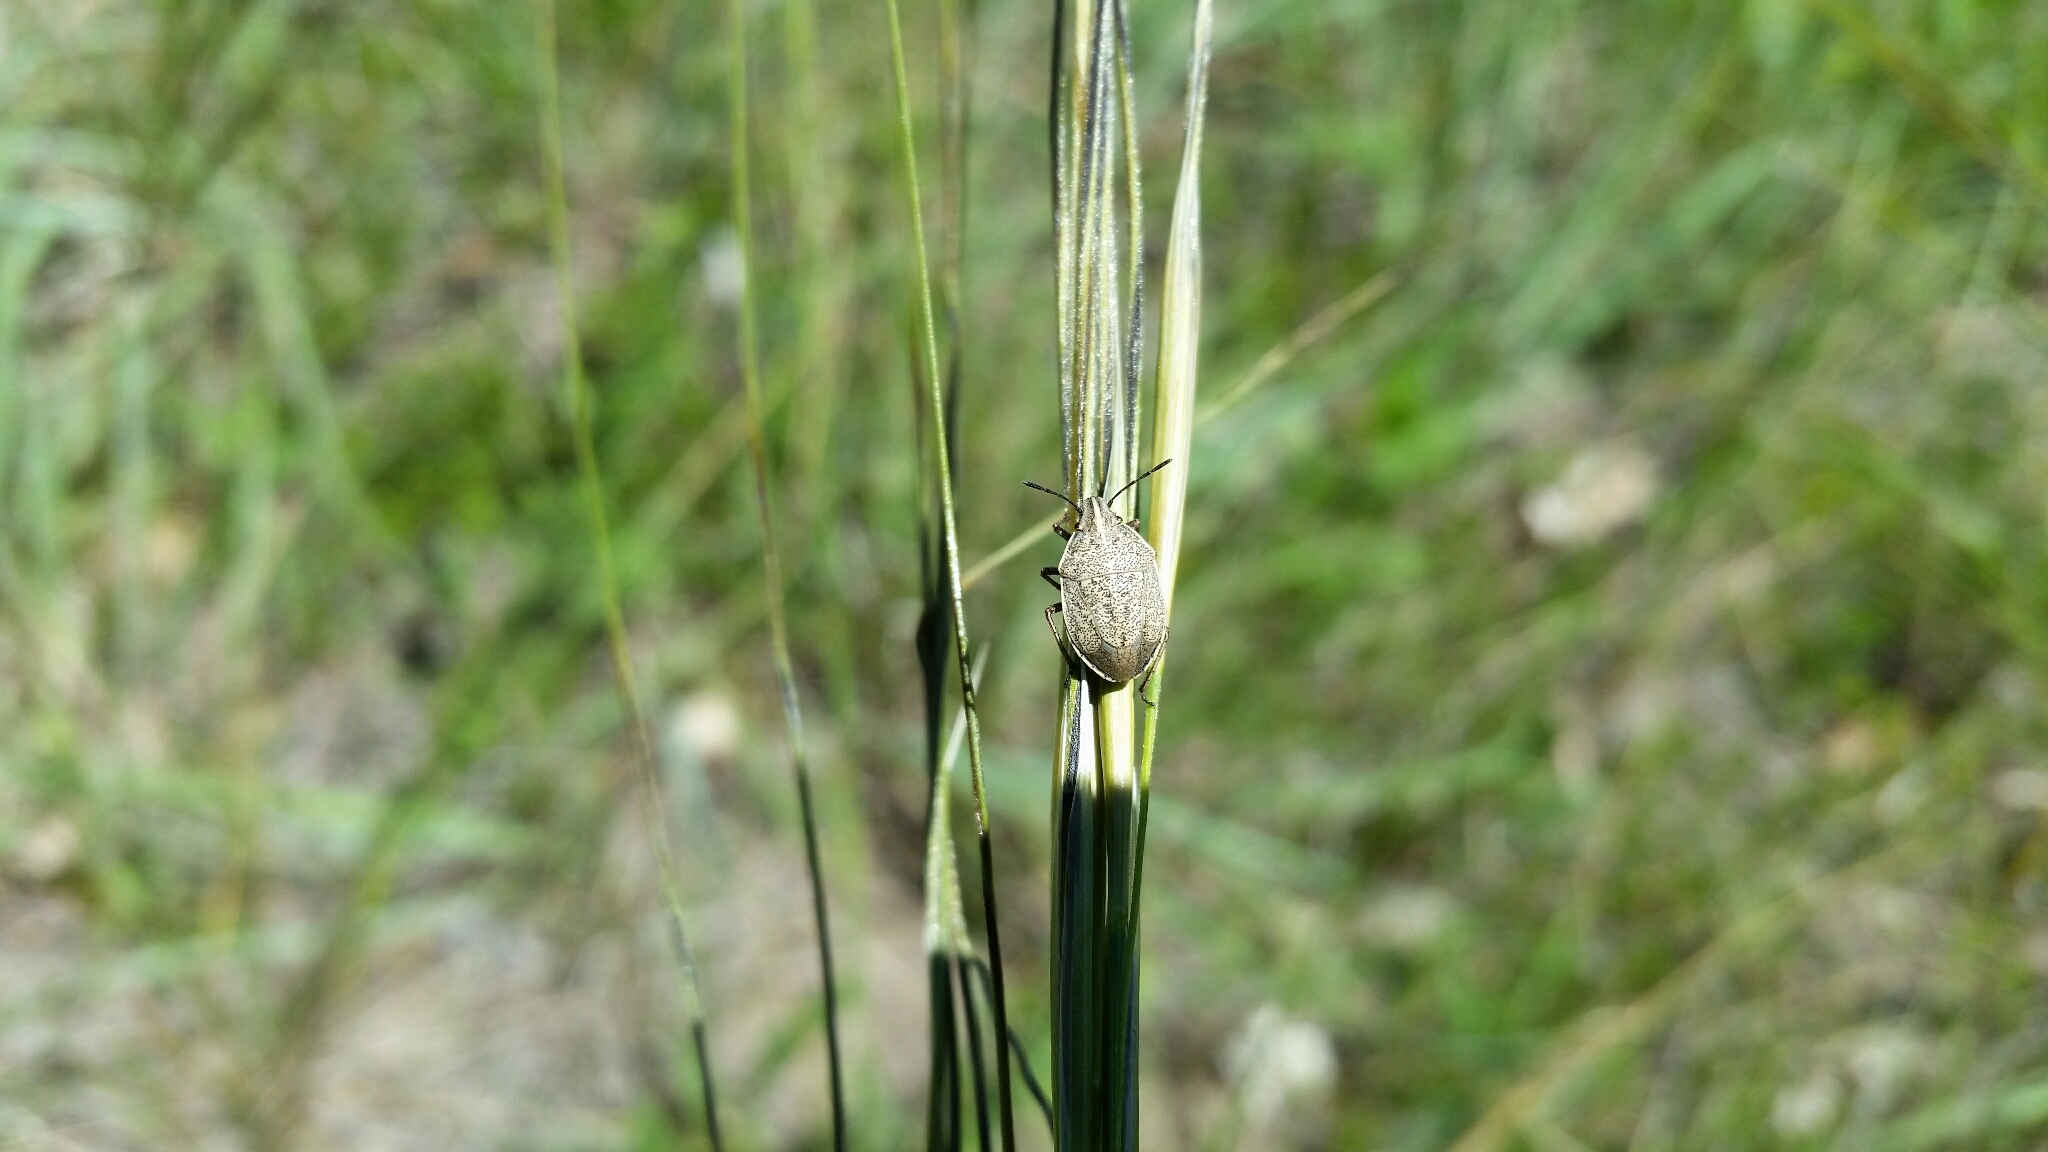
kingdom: Animalia
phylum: Arthropoda
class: Insecta
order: Hemiptera
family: Pentatomidae
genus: Coenus
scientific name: Coenus delius
